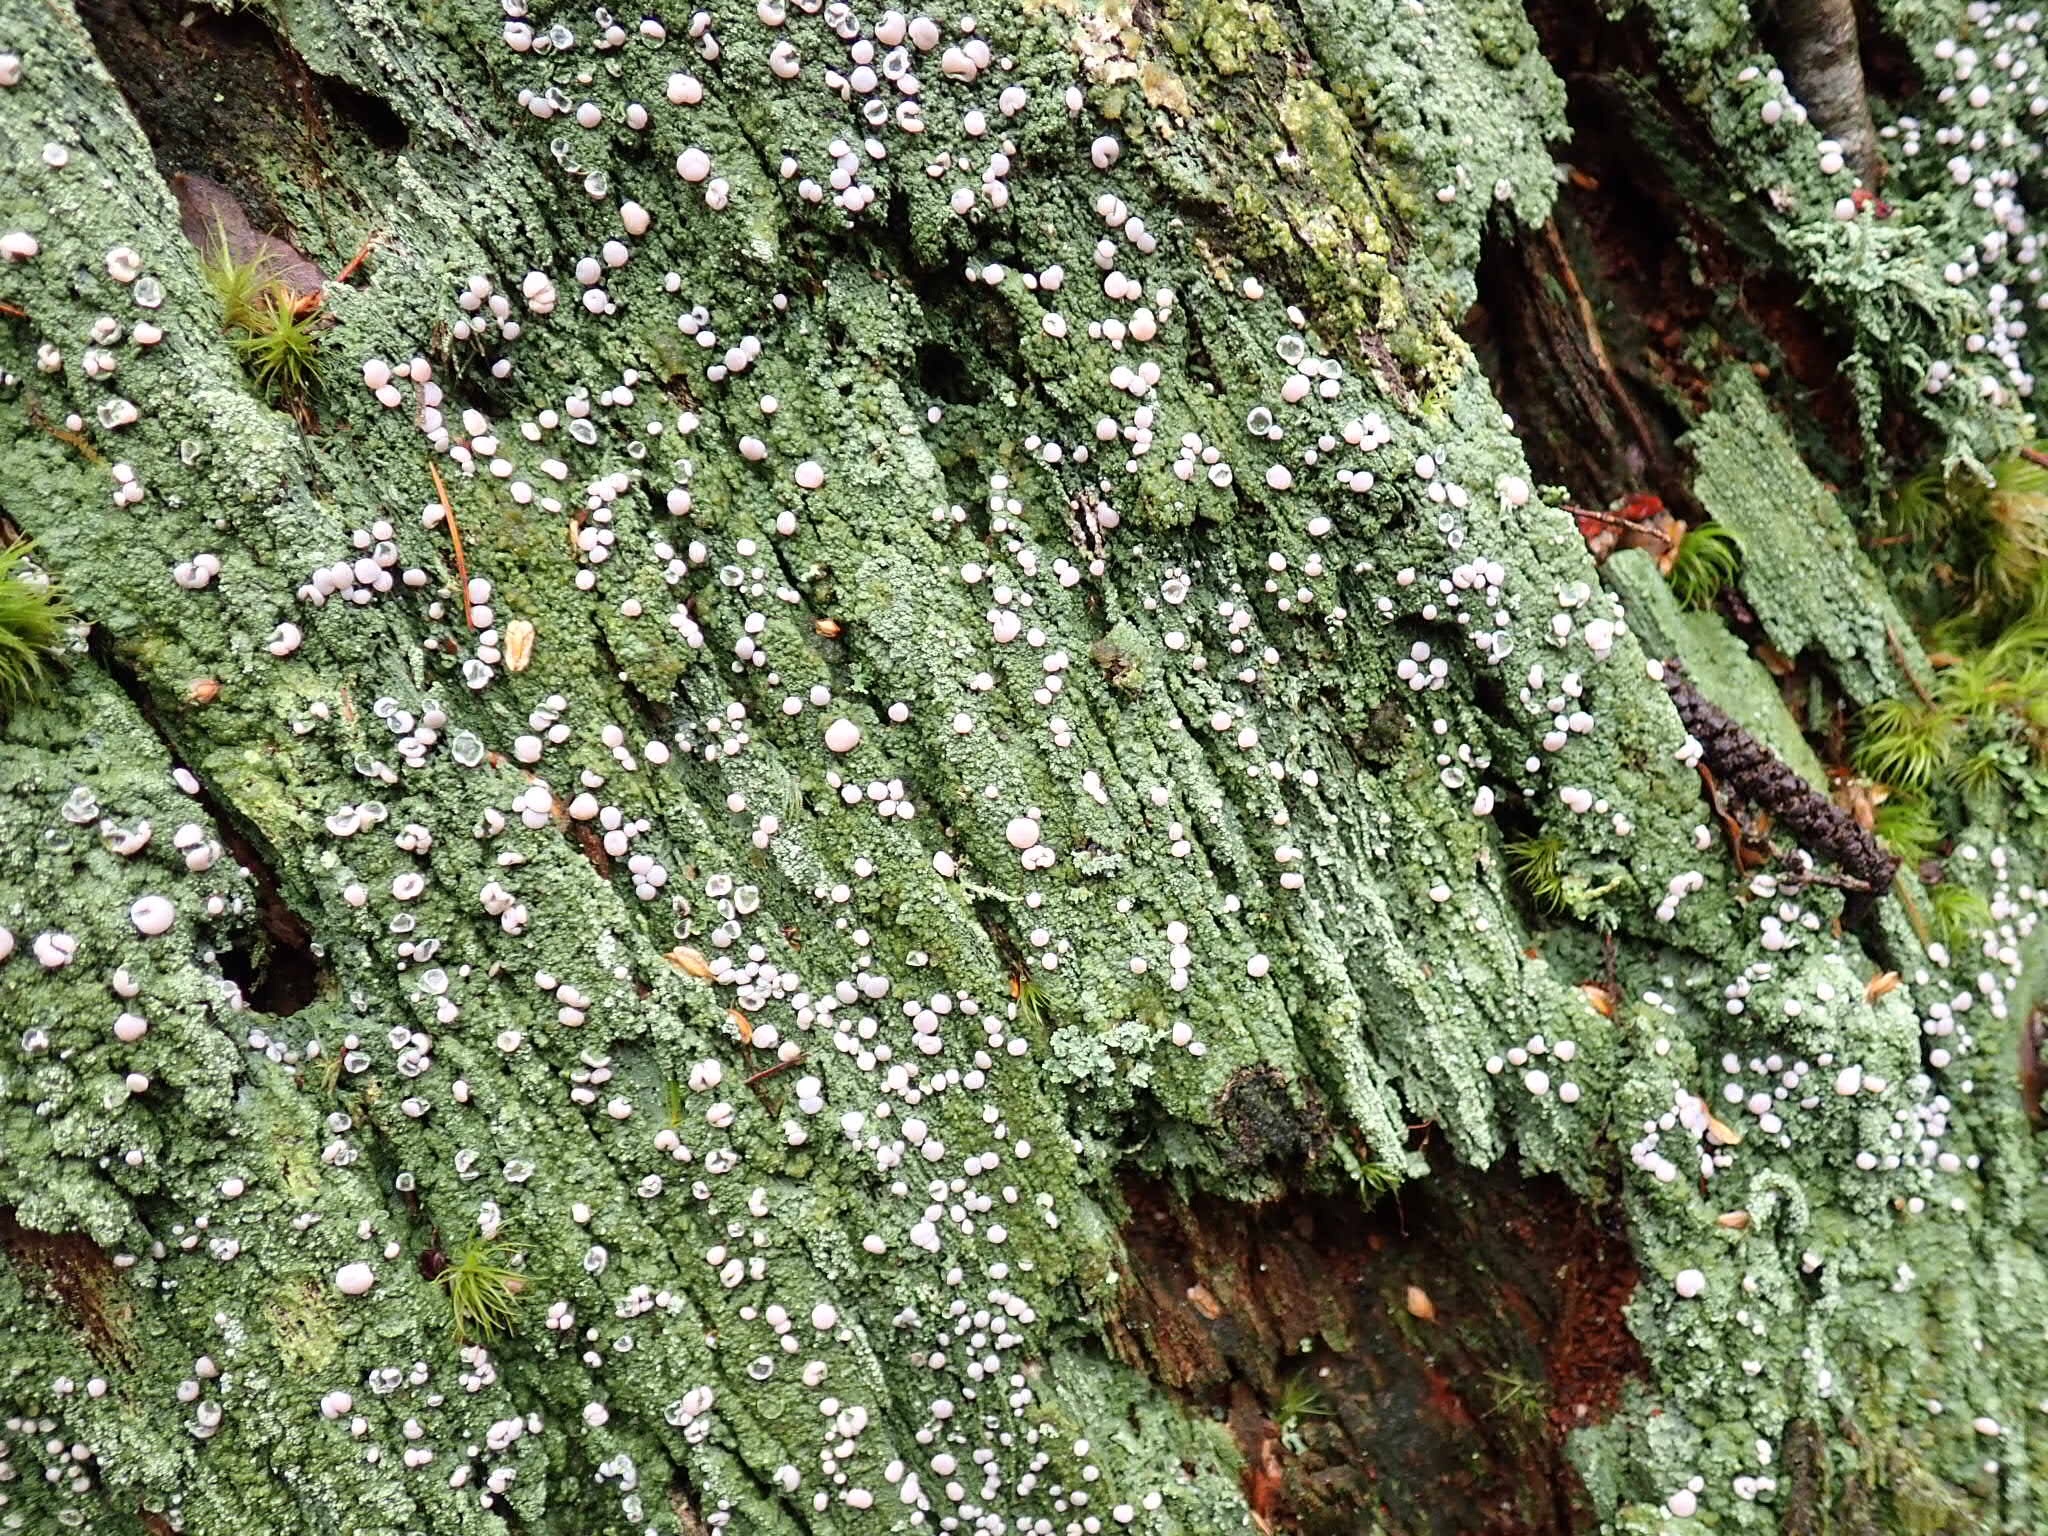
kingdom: Fungi
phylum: Ascomycota
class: Lecanoromycetes
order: Pertusariales
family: Icmadophilaceae
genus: Icmadophila
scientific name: Icmadophila ericetorum
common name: Candy lichen
